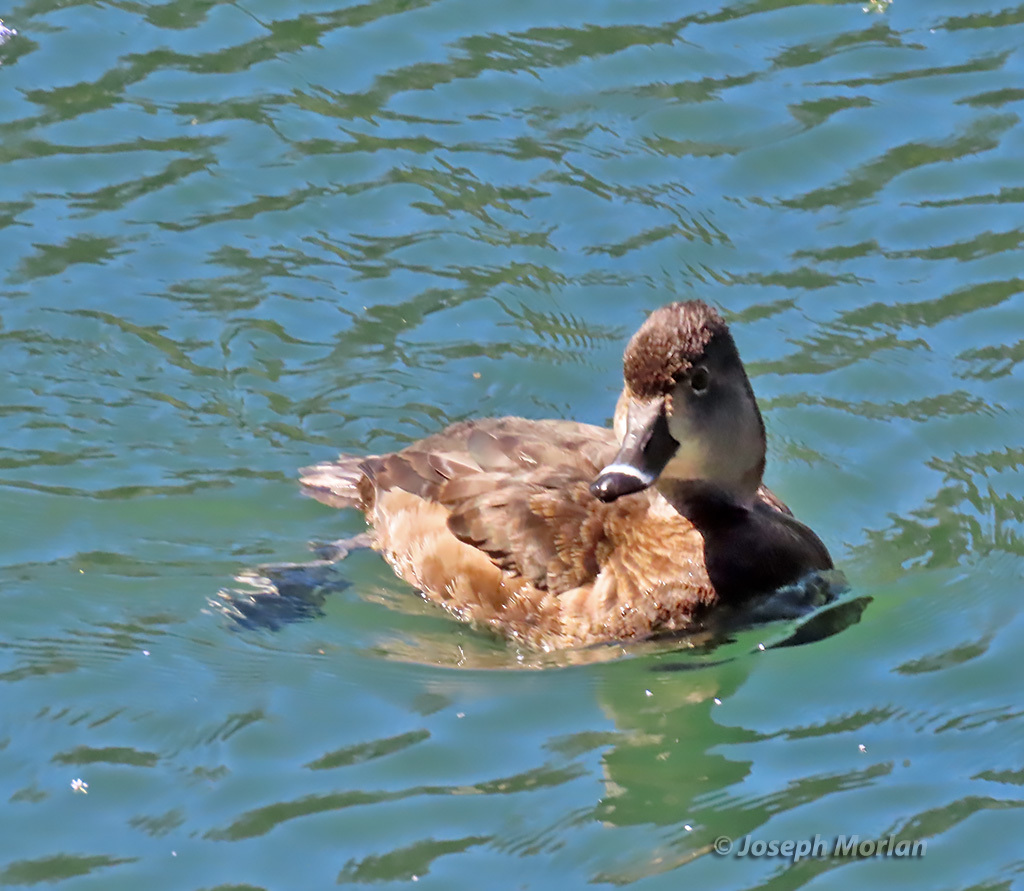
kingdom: Animalia
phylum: Chordata
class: Aves
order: Anseriformes
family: Anatidae
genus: Aythya
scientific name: Aythya collaris
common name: Ring-necked duck
